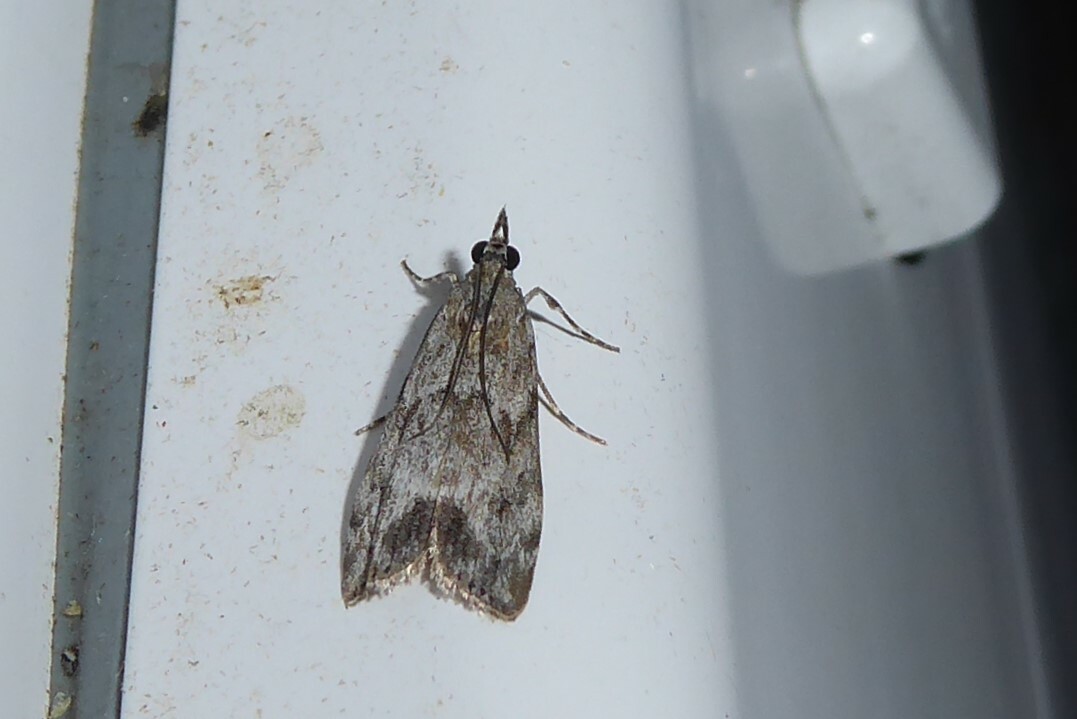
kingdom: Animalia
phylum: Arthropoda
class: Insecta
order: Lepidoptera
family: Crambidae
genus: Eudonia
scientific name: Eudonia rakaiensis
